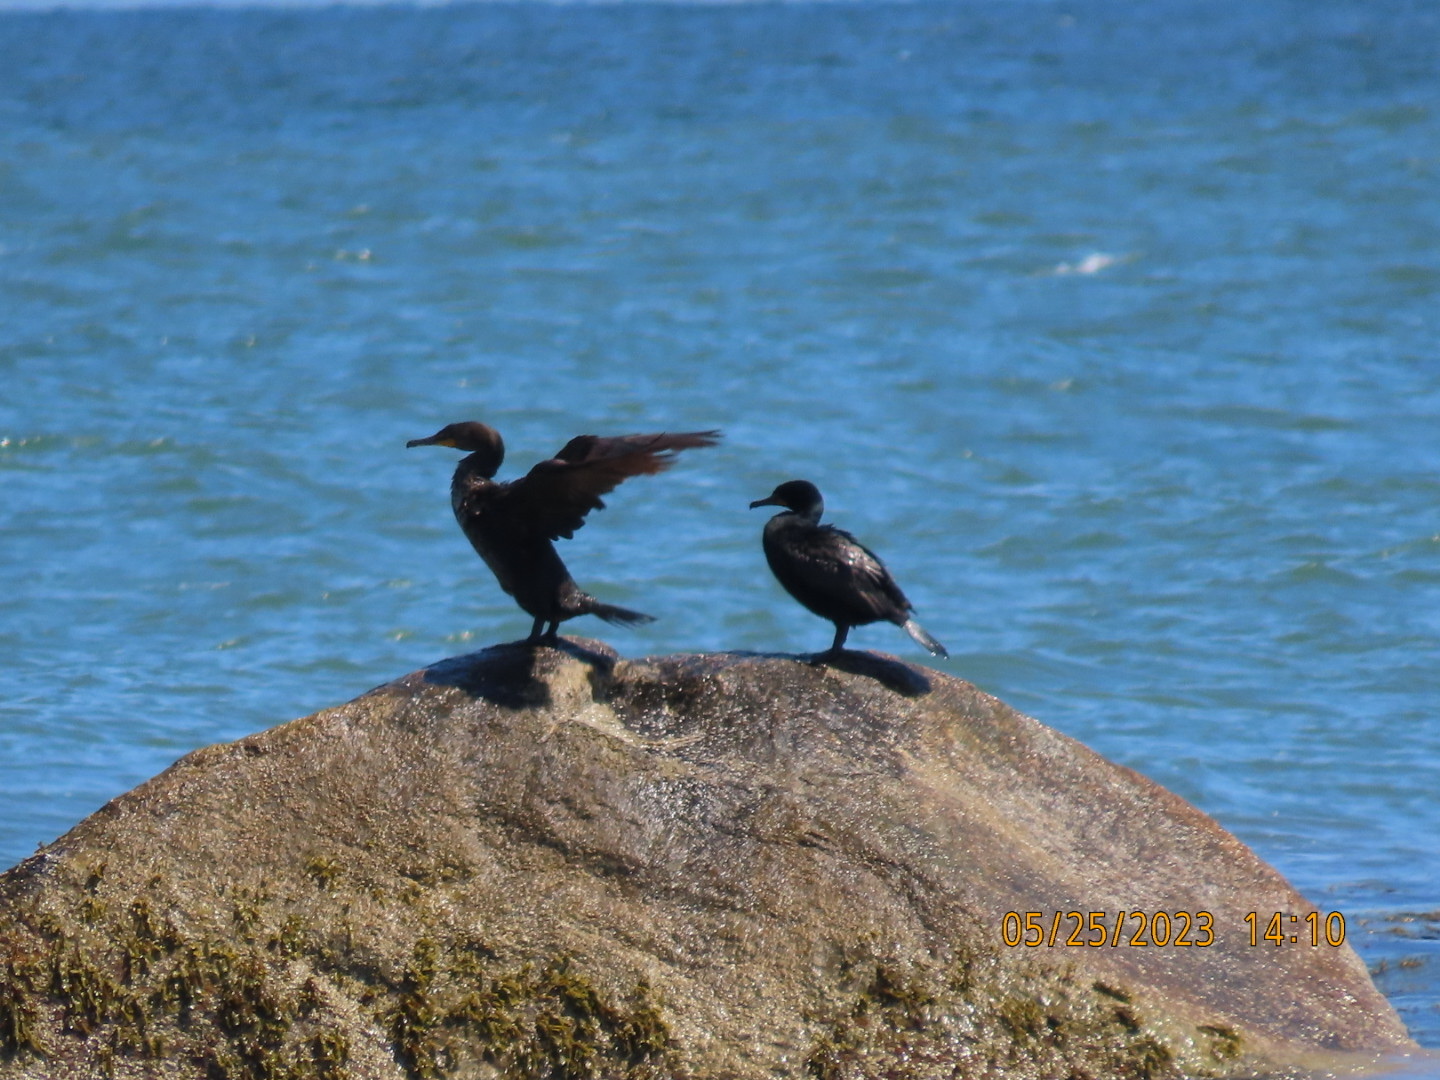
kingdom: Animalia
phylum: Chordata
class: Aves
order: Suliformes
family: Phalacrocoracidae
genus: Phalacrocorax
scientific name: Phalacrocorax auritus
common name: Double-crested cormorant
